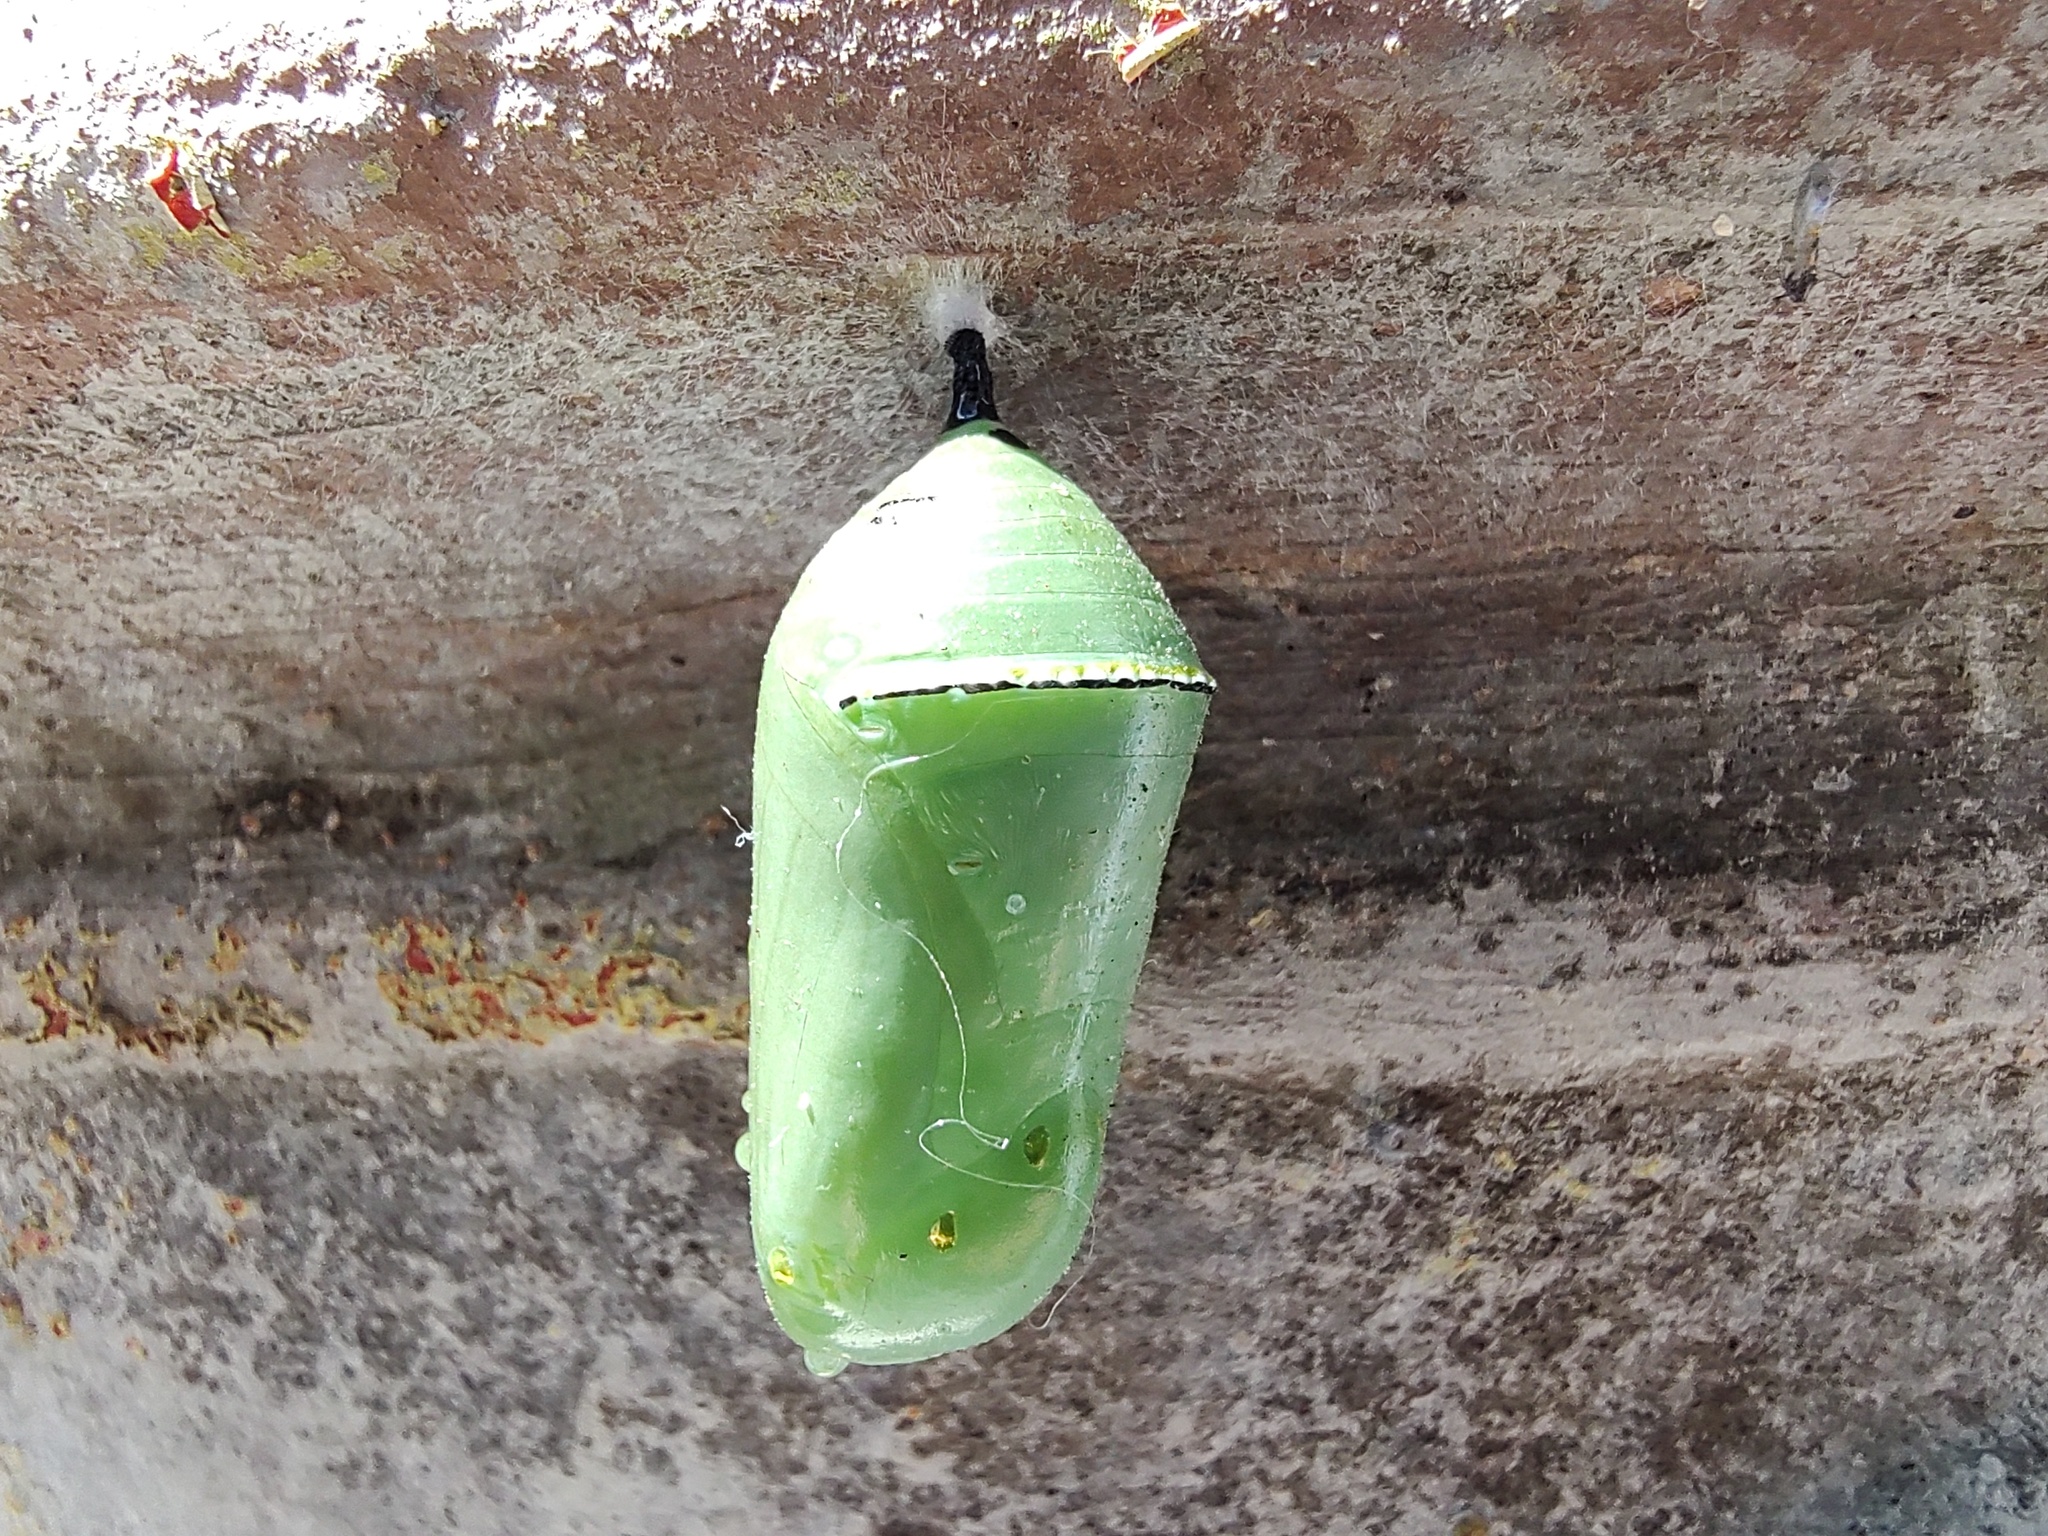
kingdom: Animalia
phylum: Arthropoda
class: Insecta
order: Lepidoptera
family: Nymphalidae
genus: Danaus
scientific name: Danaus plexippus
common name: Monarch
